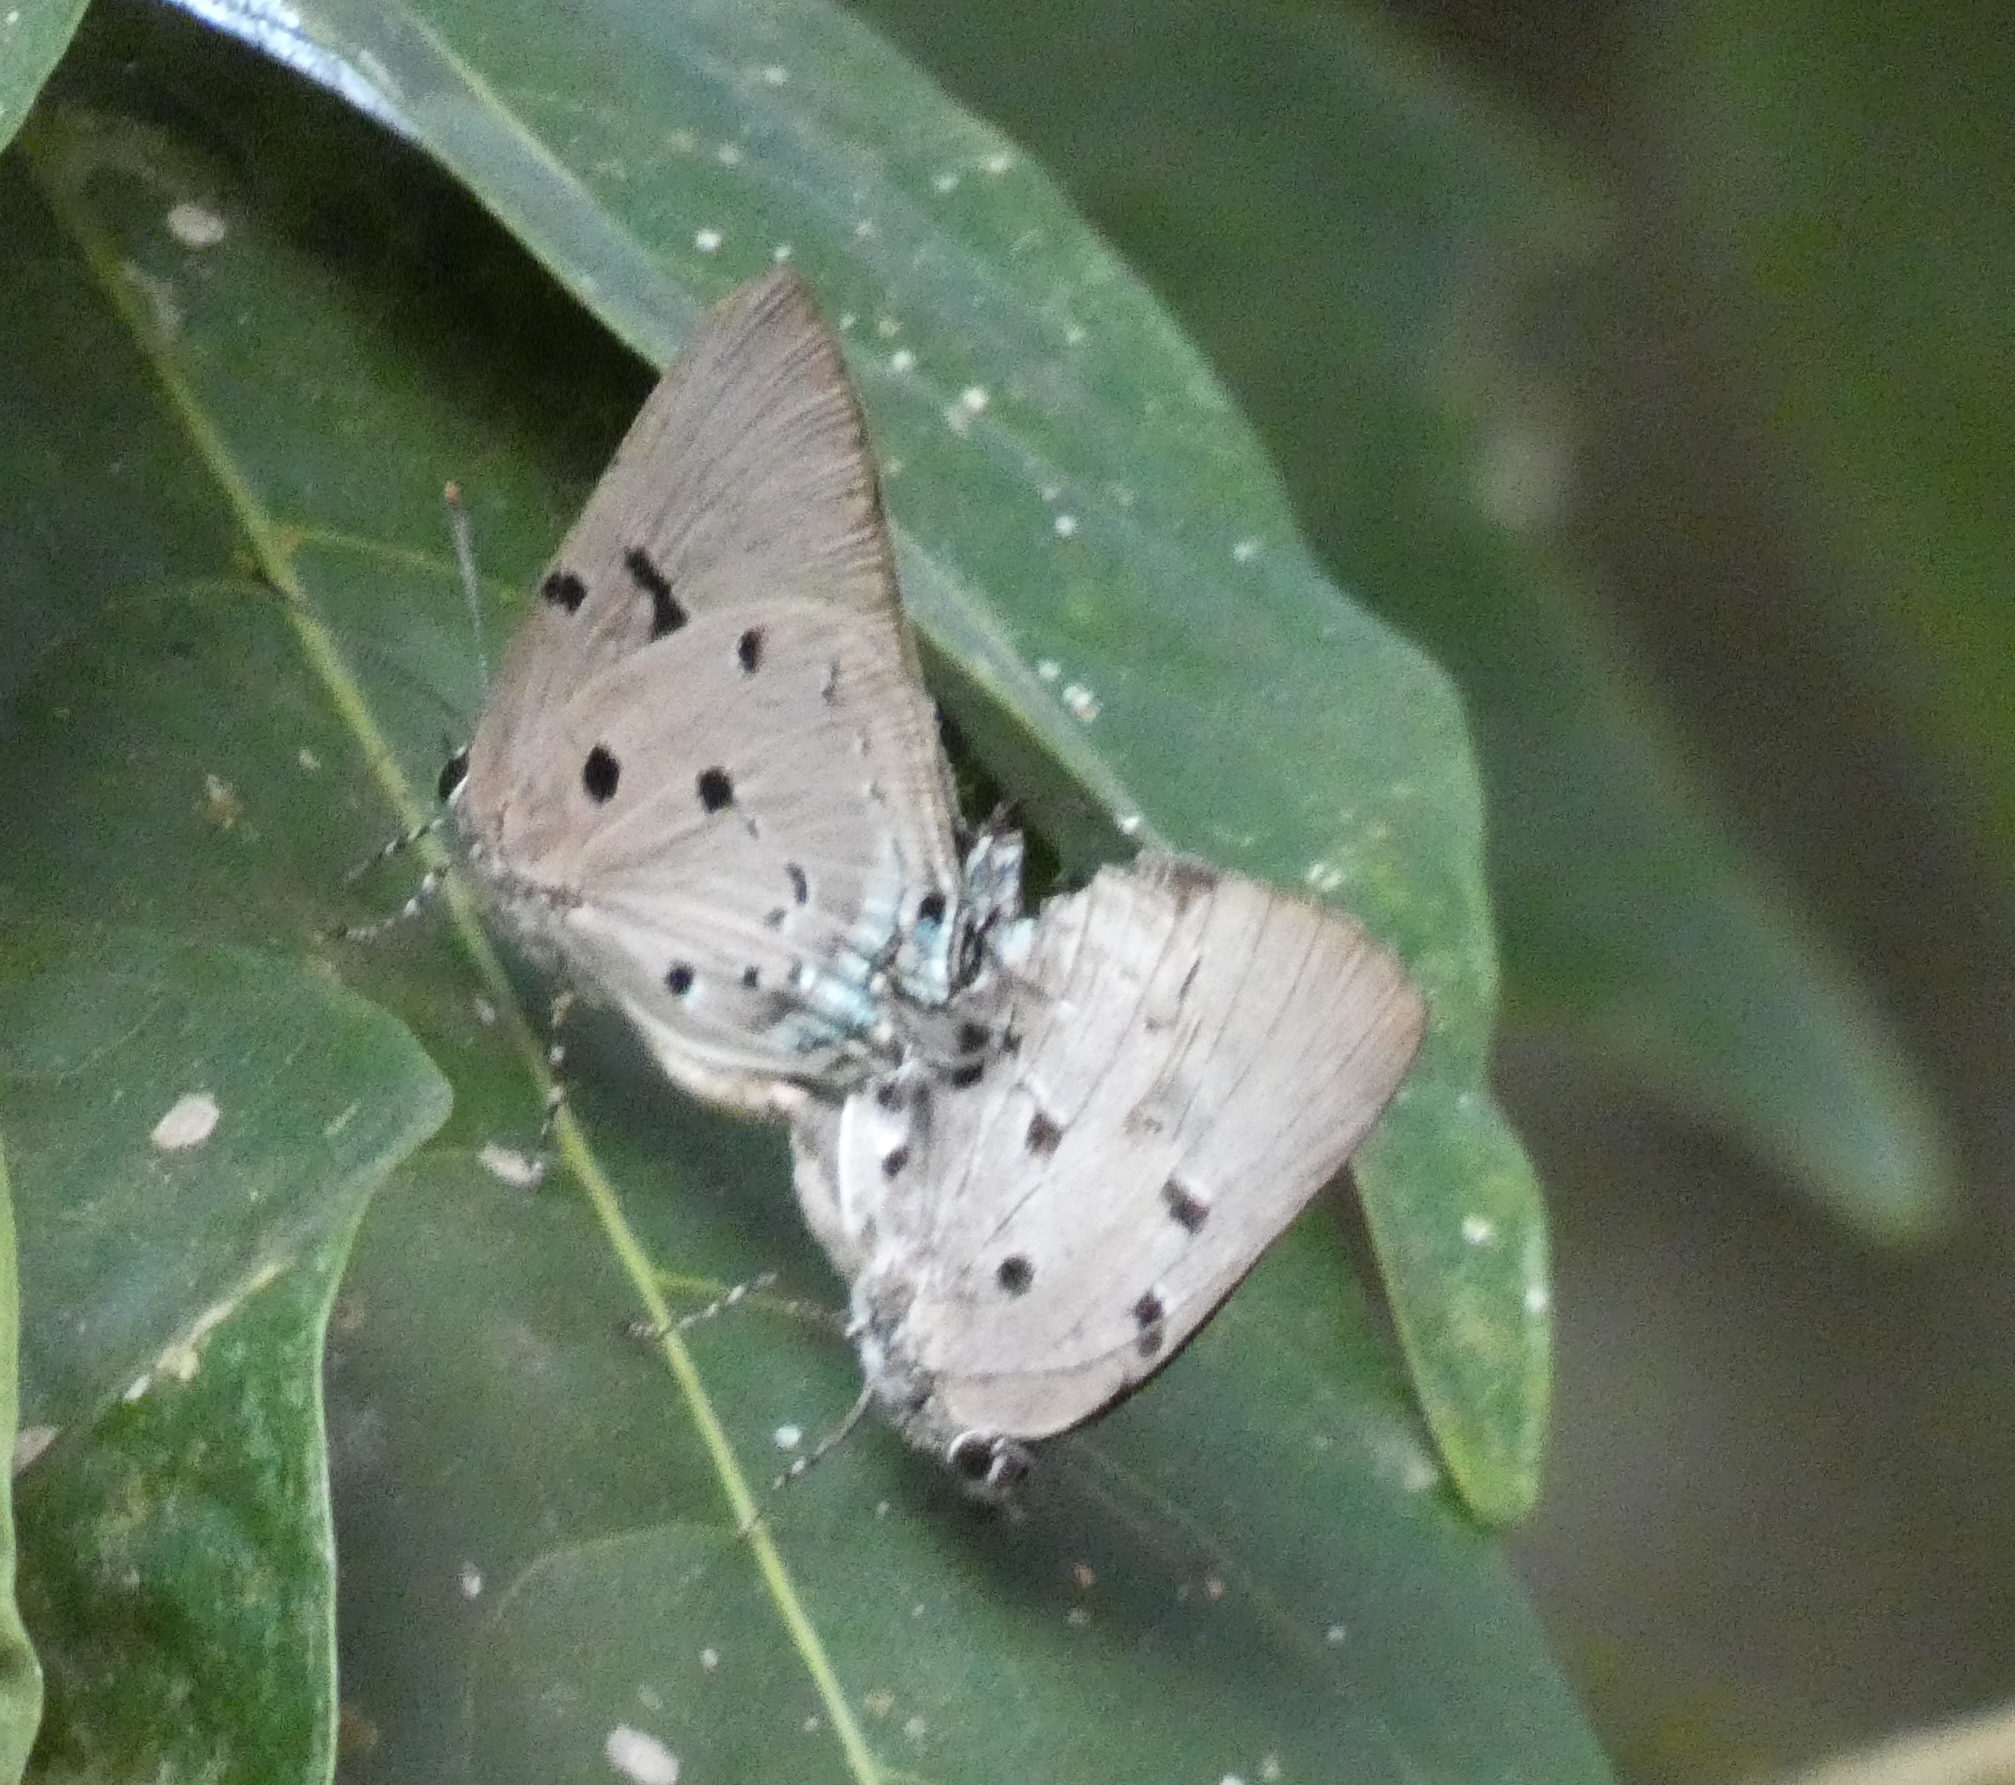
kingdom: Animalia
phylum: Arthropoda
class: Insecta
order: Lepidoptera
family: Lycaenidae
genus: Oenomaus
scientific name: Oenomaus ortygnus
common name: Aquamarine hairstreak
